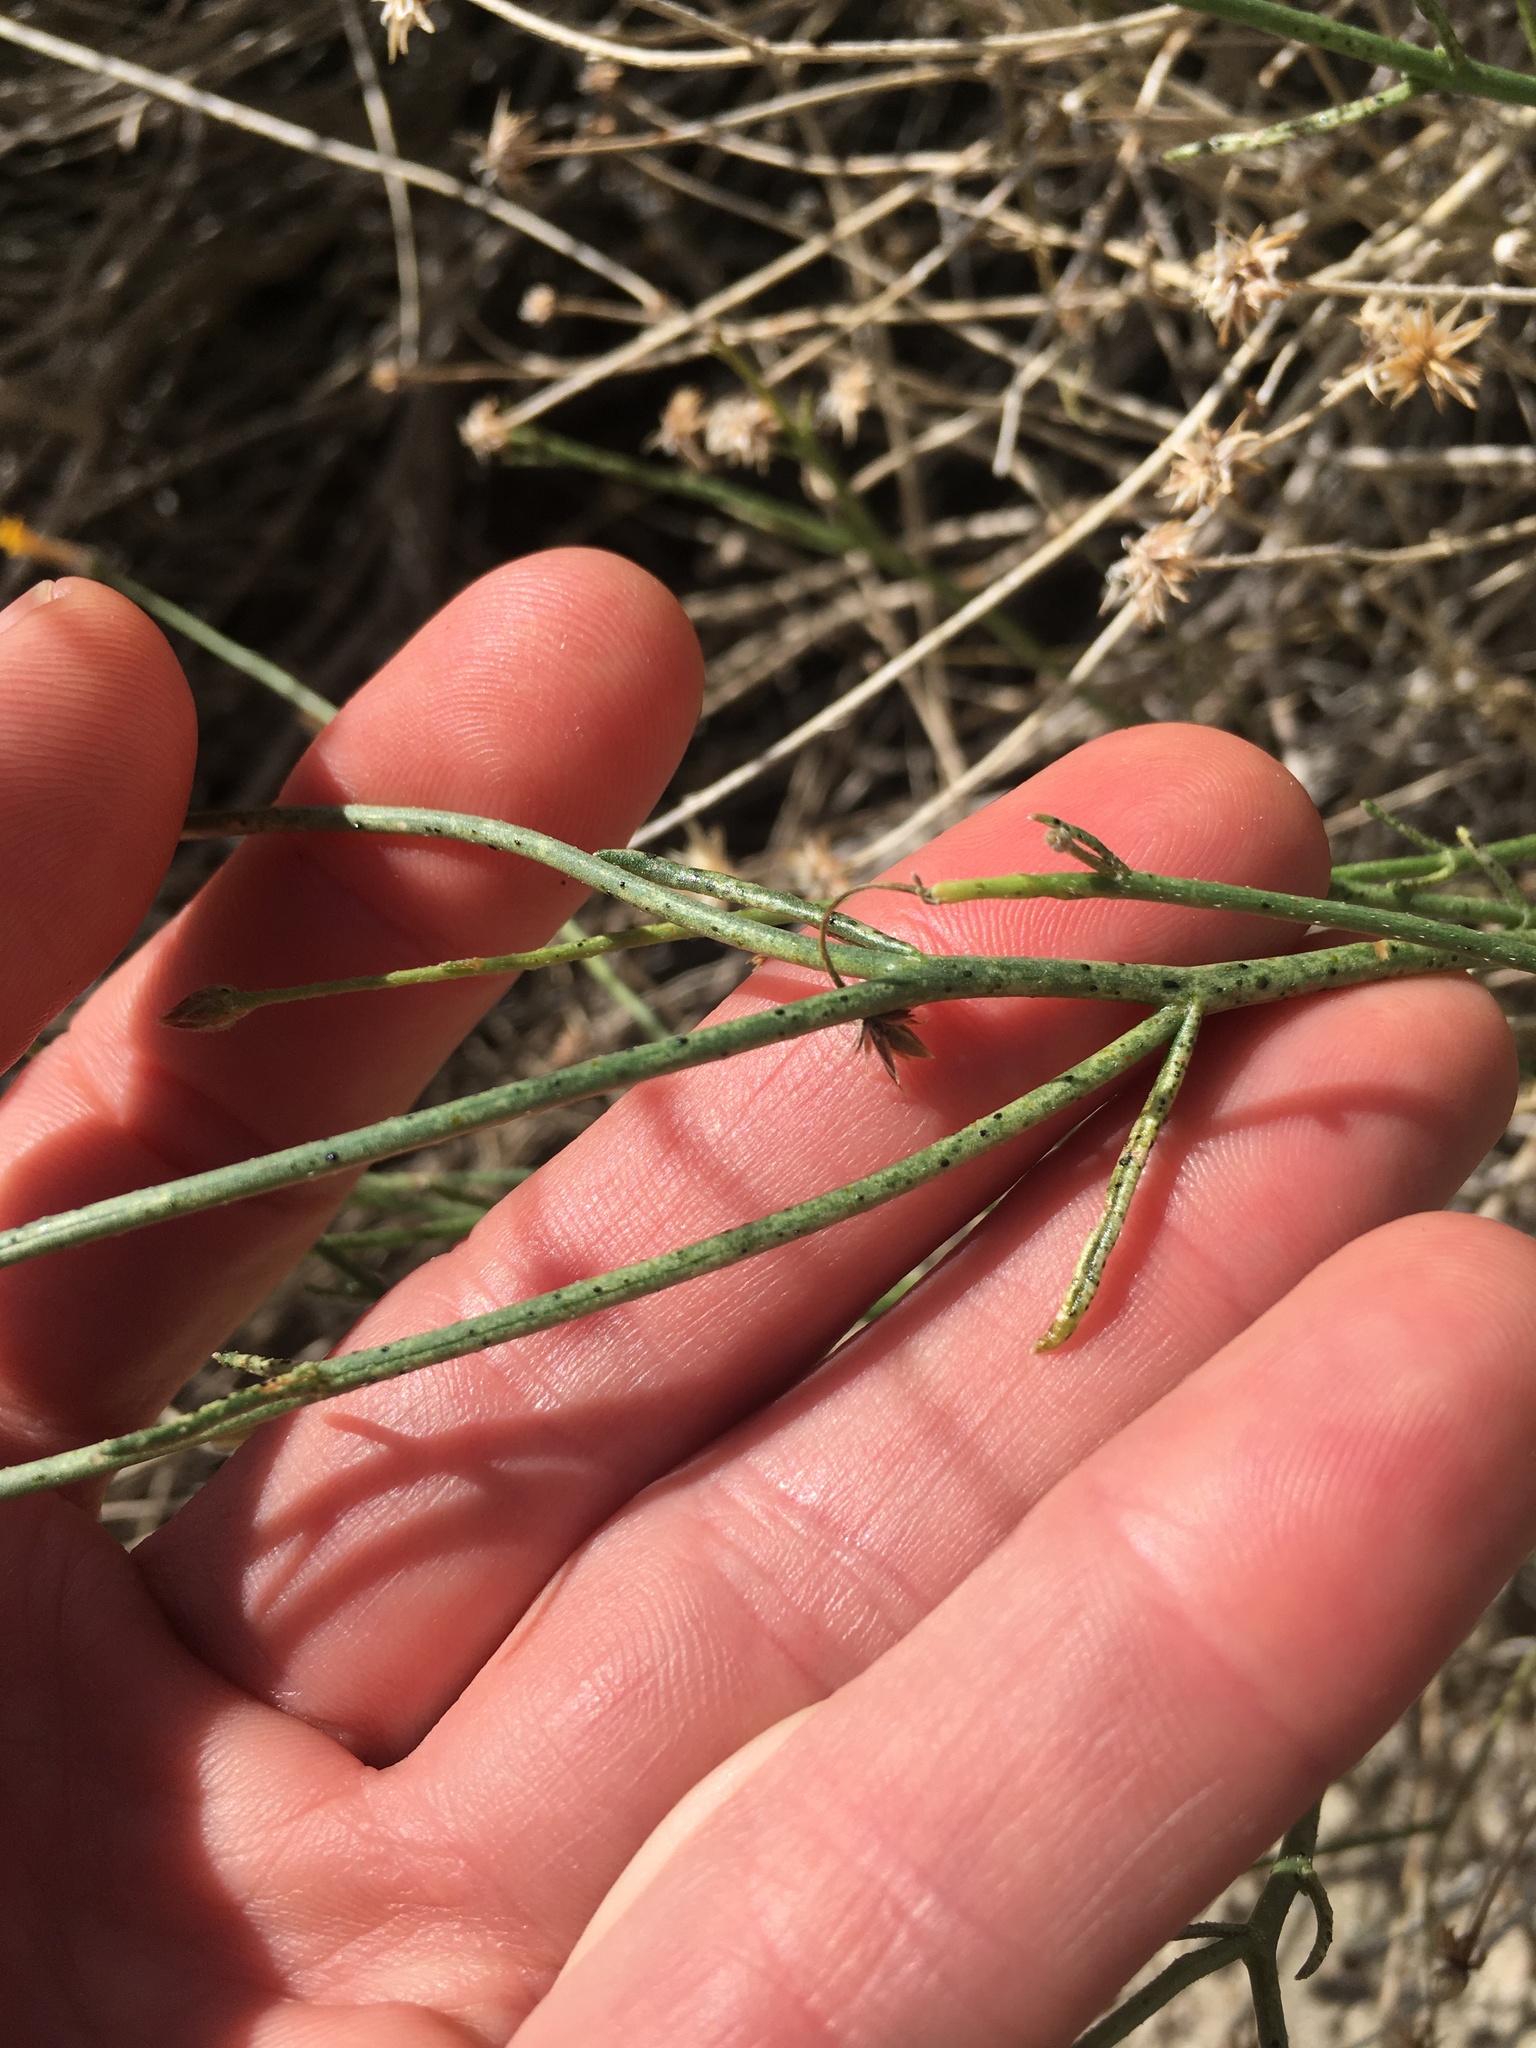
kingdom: Plantae
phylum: Tracheophyta
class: Magnoliopsida
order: Asterales
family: Asteraceae
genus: Bebbia
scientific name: Bebbia juncea
